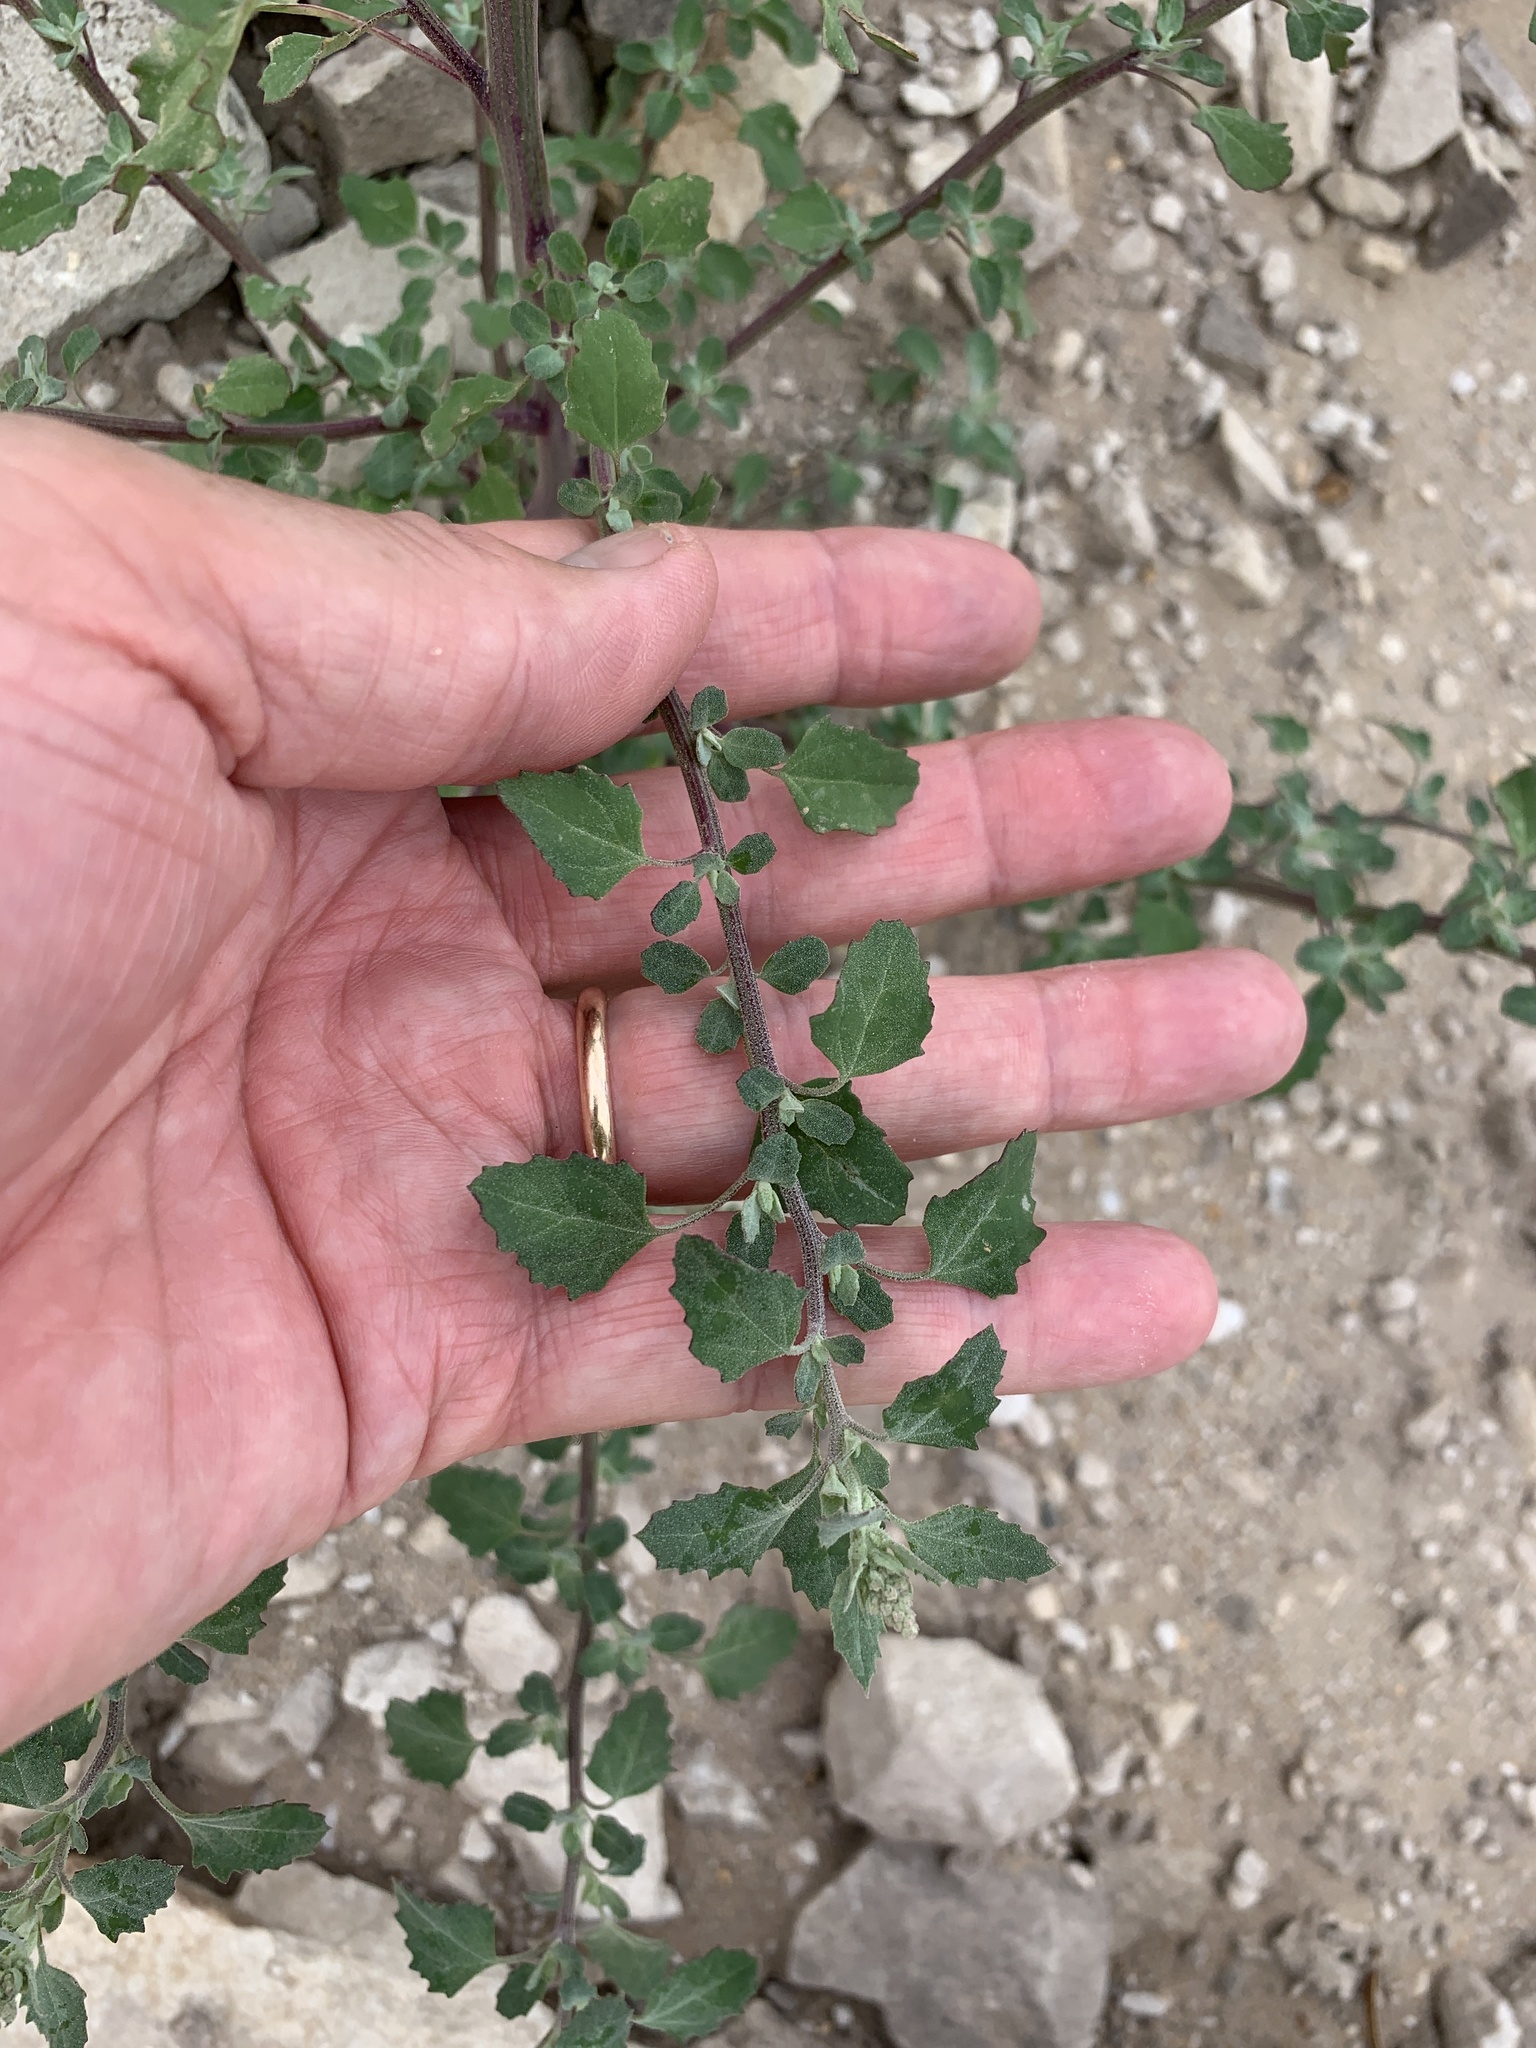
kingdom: Plantae
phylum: Tracheophyta
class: Magnoliopsida
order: Caryophyllales
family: Amaranthaceae
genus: Chenopodium
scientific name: Chenopodium album
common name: Fat-hen
